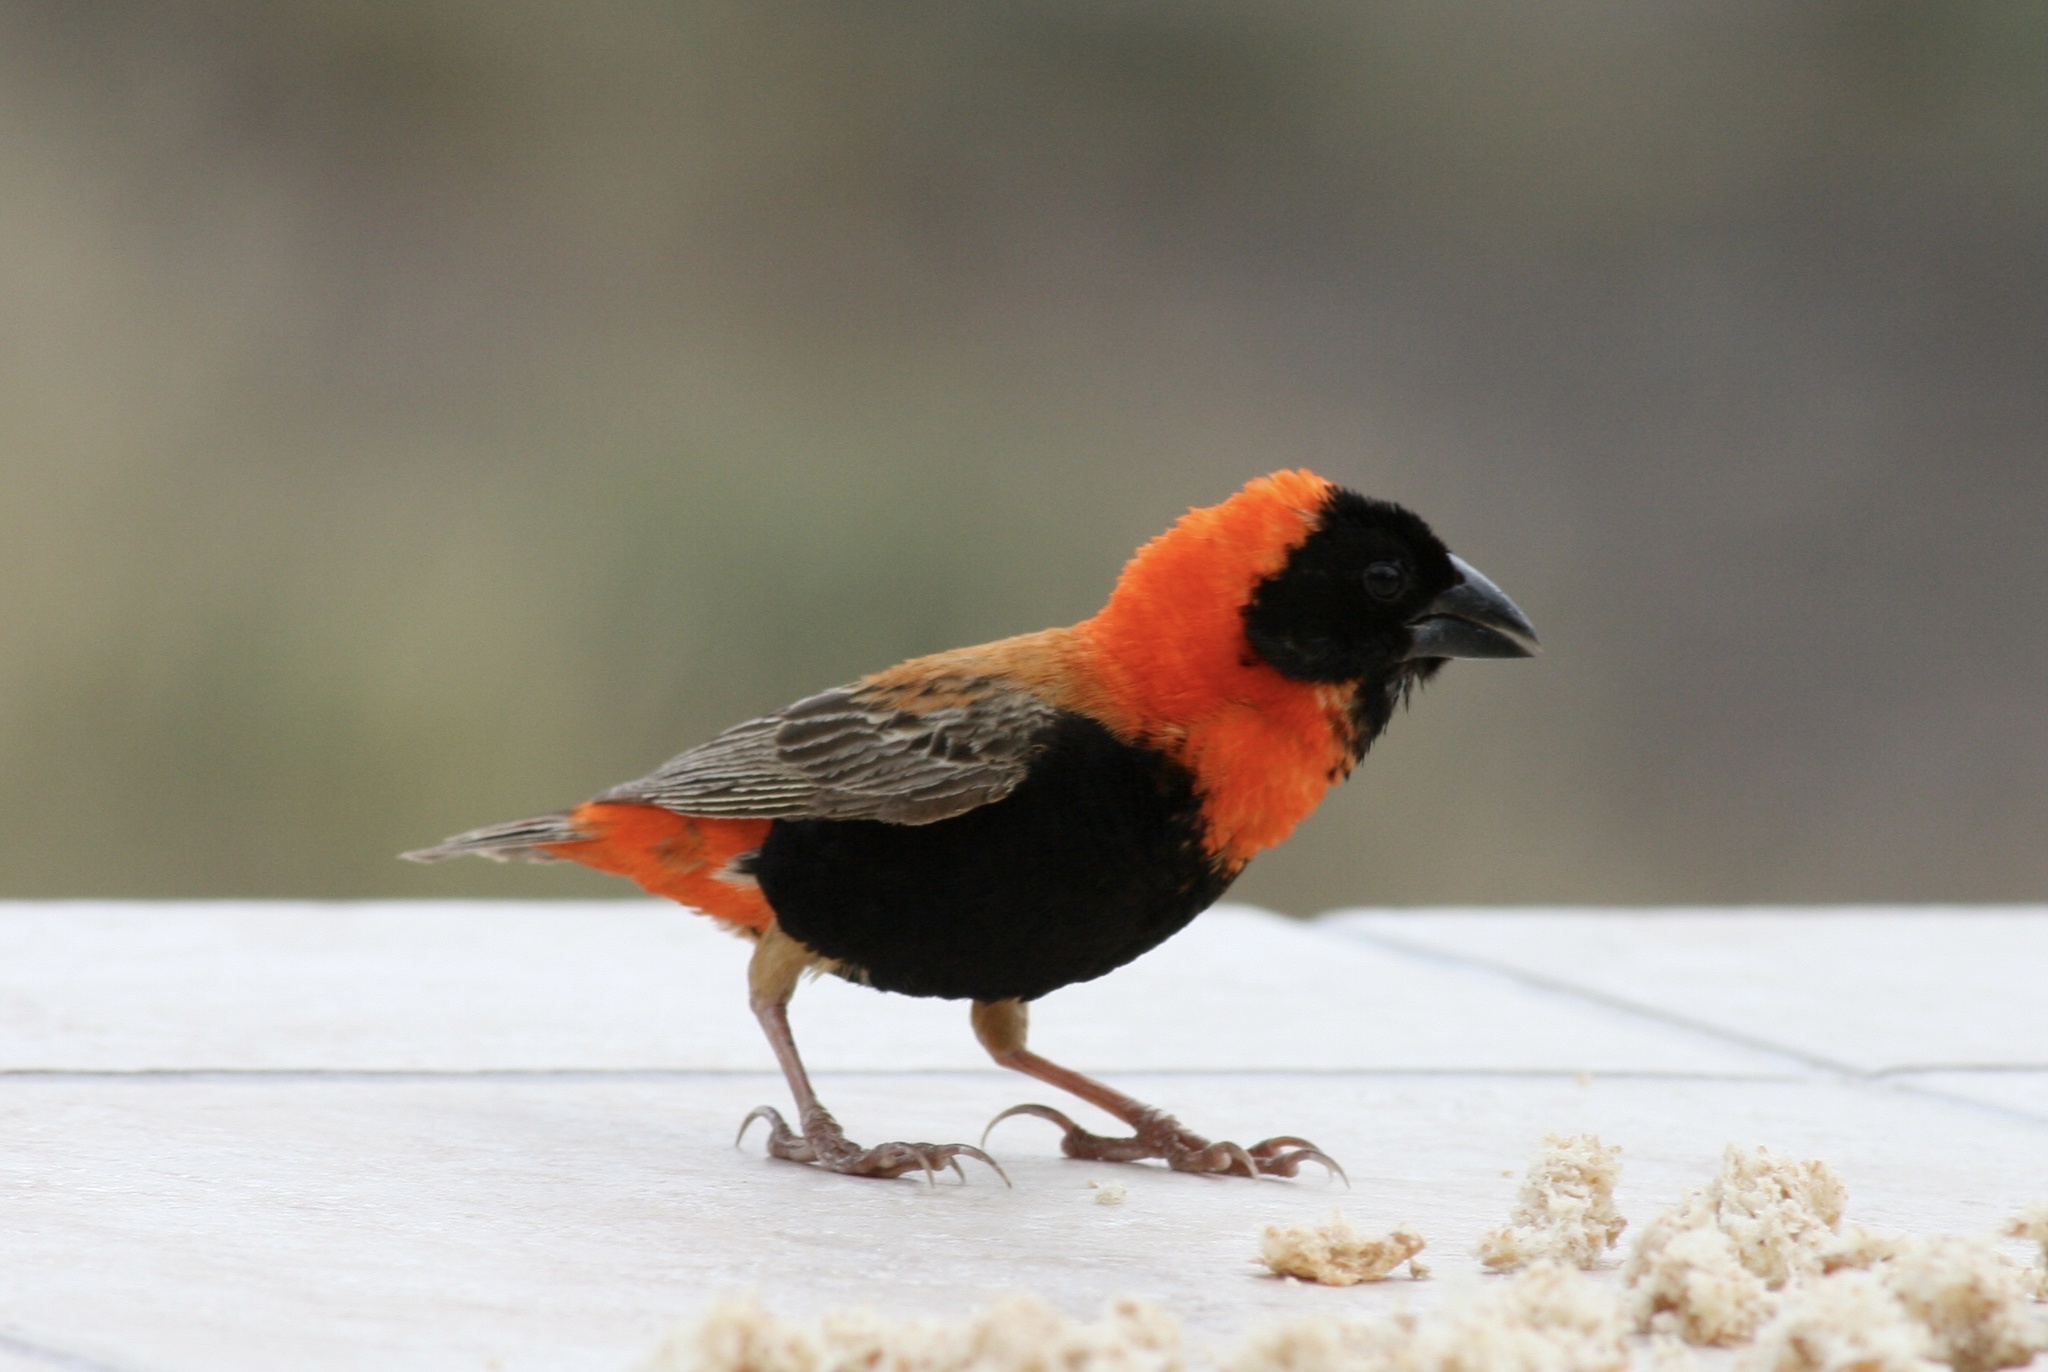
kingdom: Animalia
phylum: Chordata
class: Aves
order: Passeriformes
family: Ploceidae
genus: Euplectes
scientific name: Euplectes orix
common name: Southern red bishop
